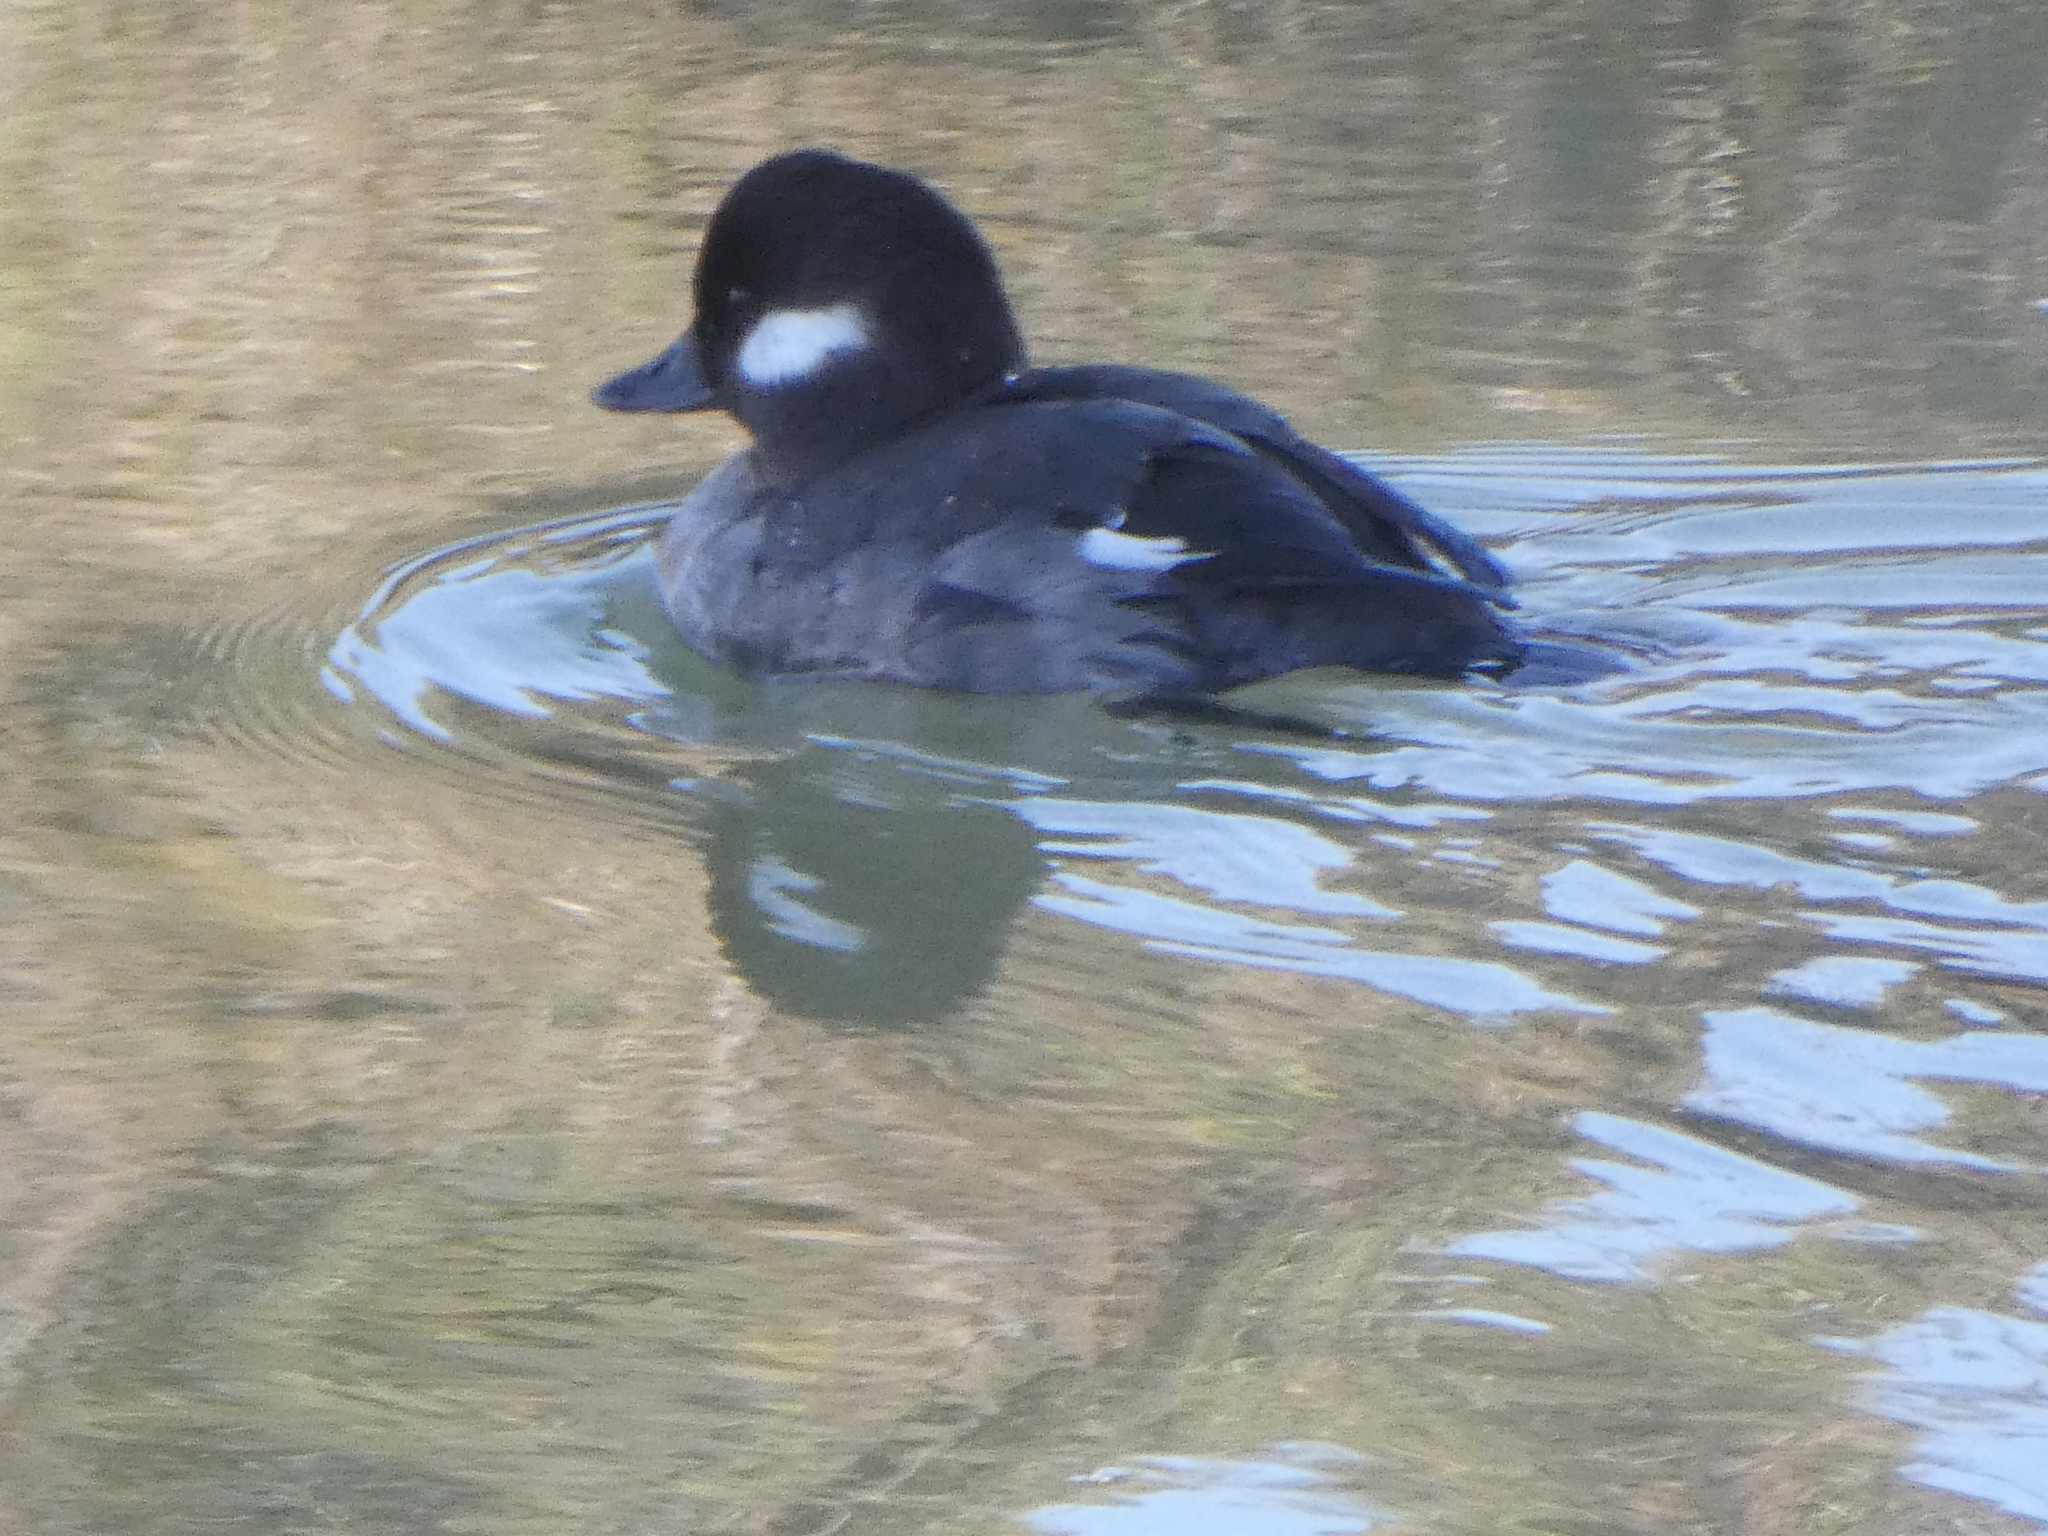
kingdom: Animalia
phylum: Chordata
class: Aves
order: Anseriformes
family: Anatidae
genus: Bucephala
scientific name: Bucephala albeola
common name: Bufflehead
